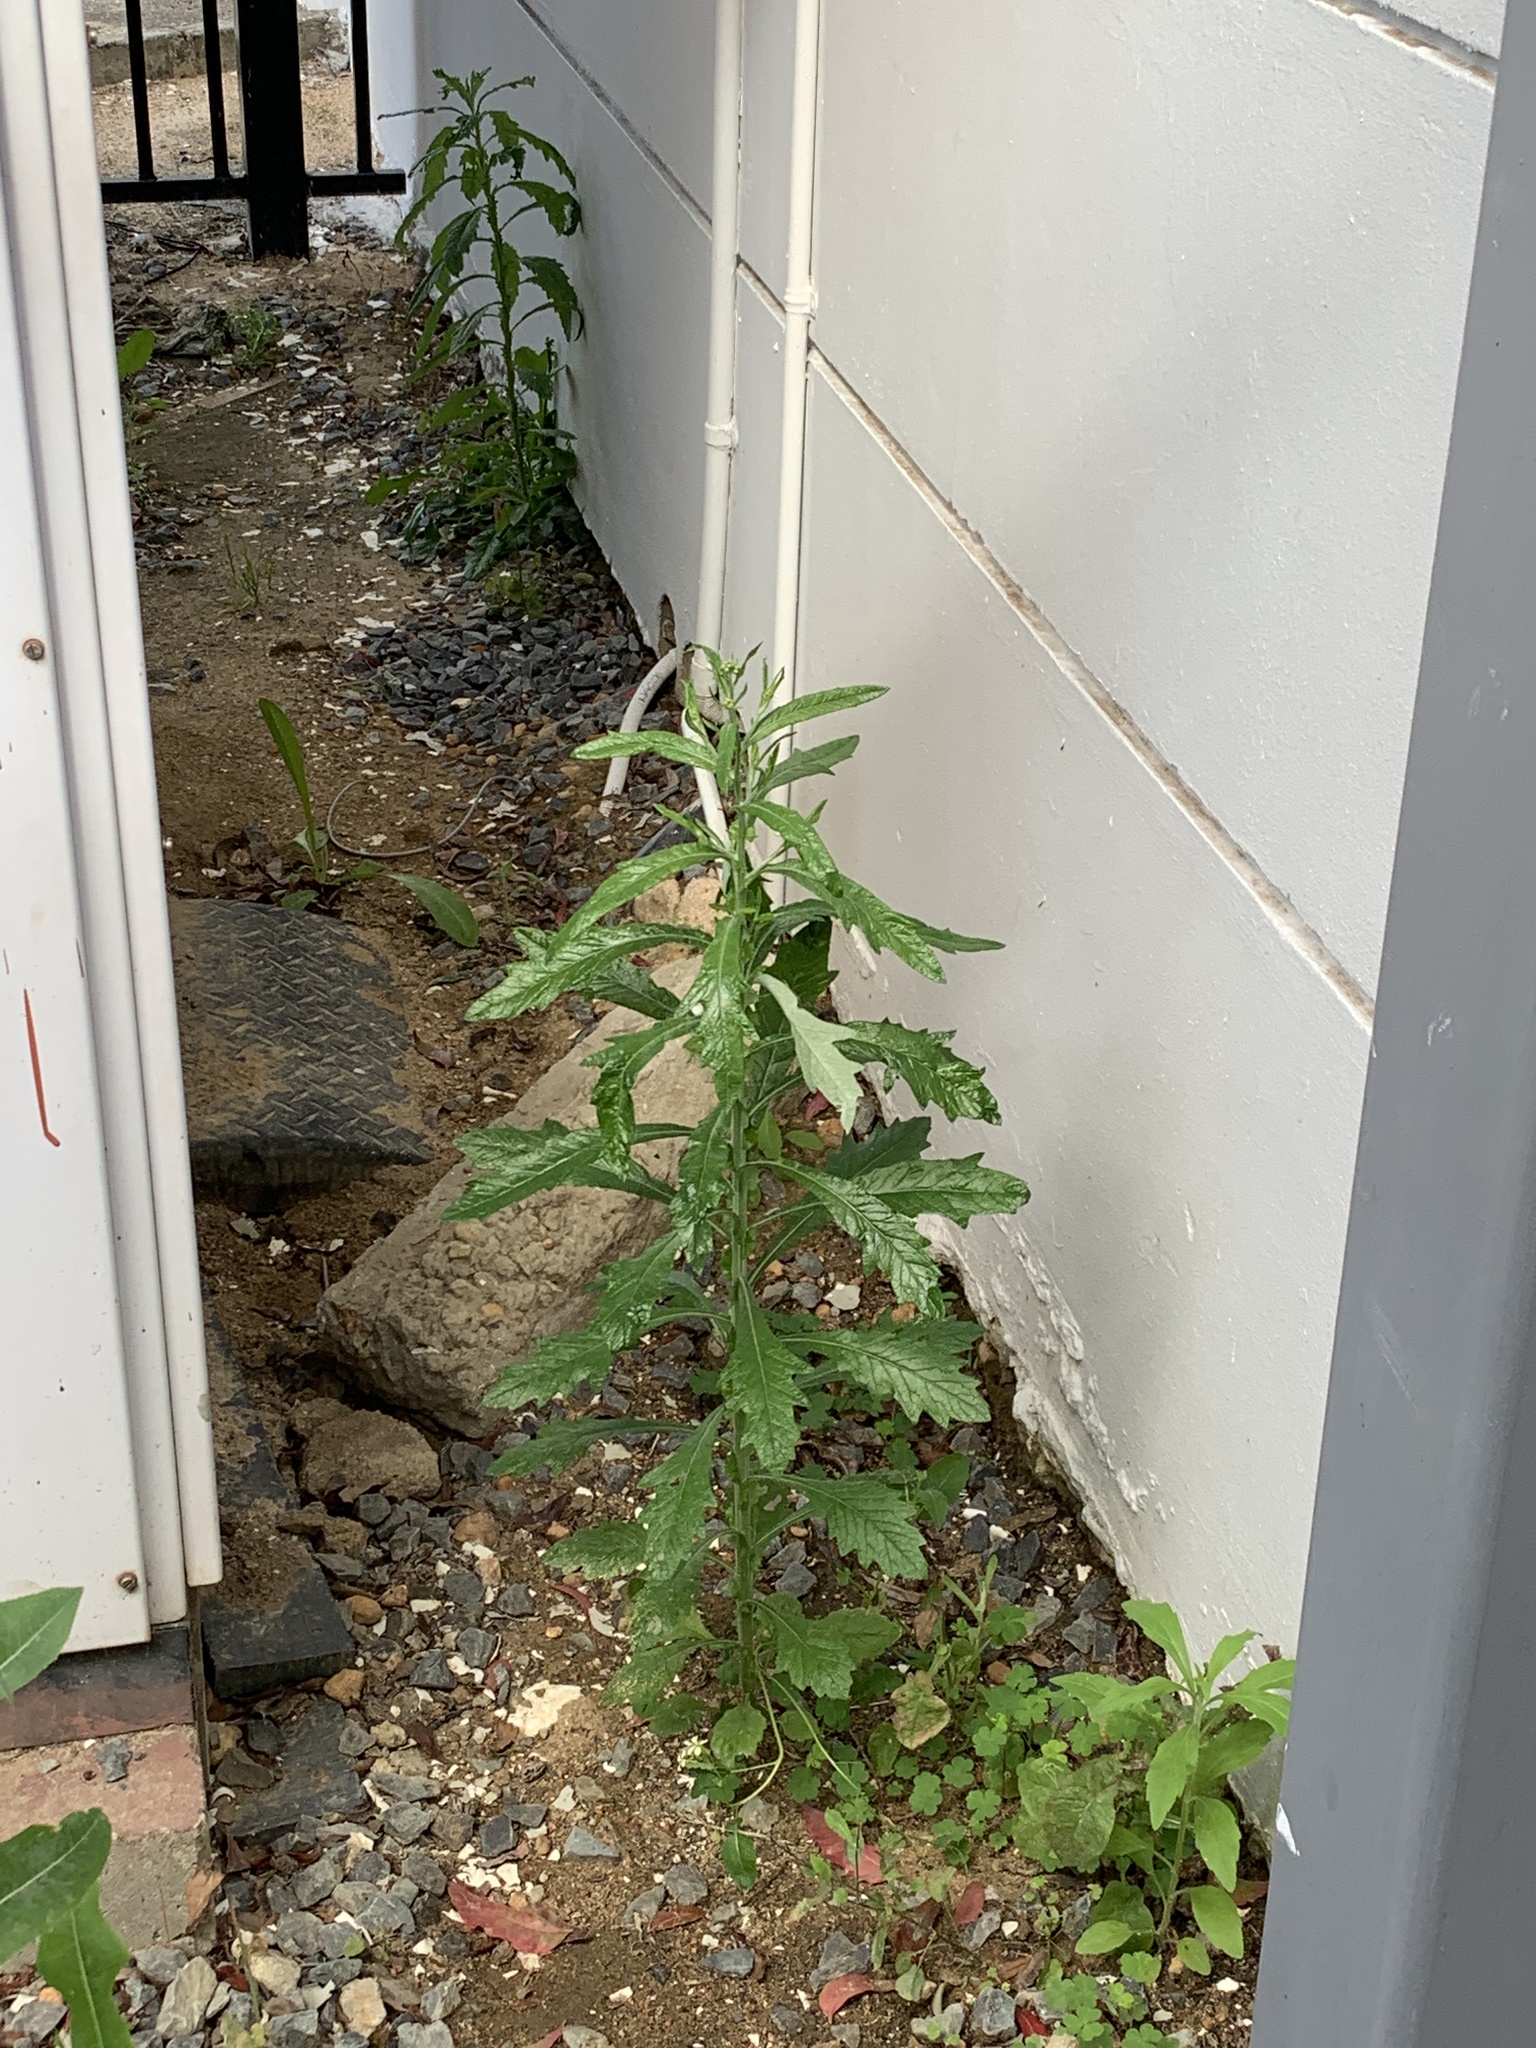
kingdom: Plantae
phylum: Tracheophyta
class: Magnoliopsida
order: Asterales
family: Asteraceae
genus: Senecio
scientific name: Senecio pterophorus
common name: Shoddy ragwort
